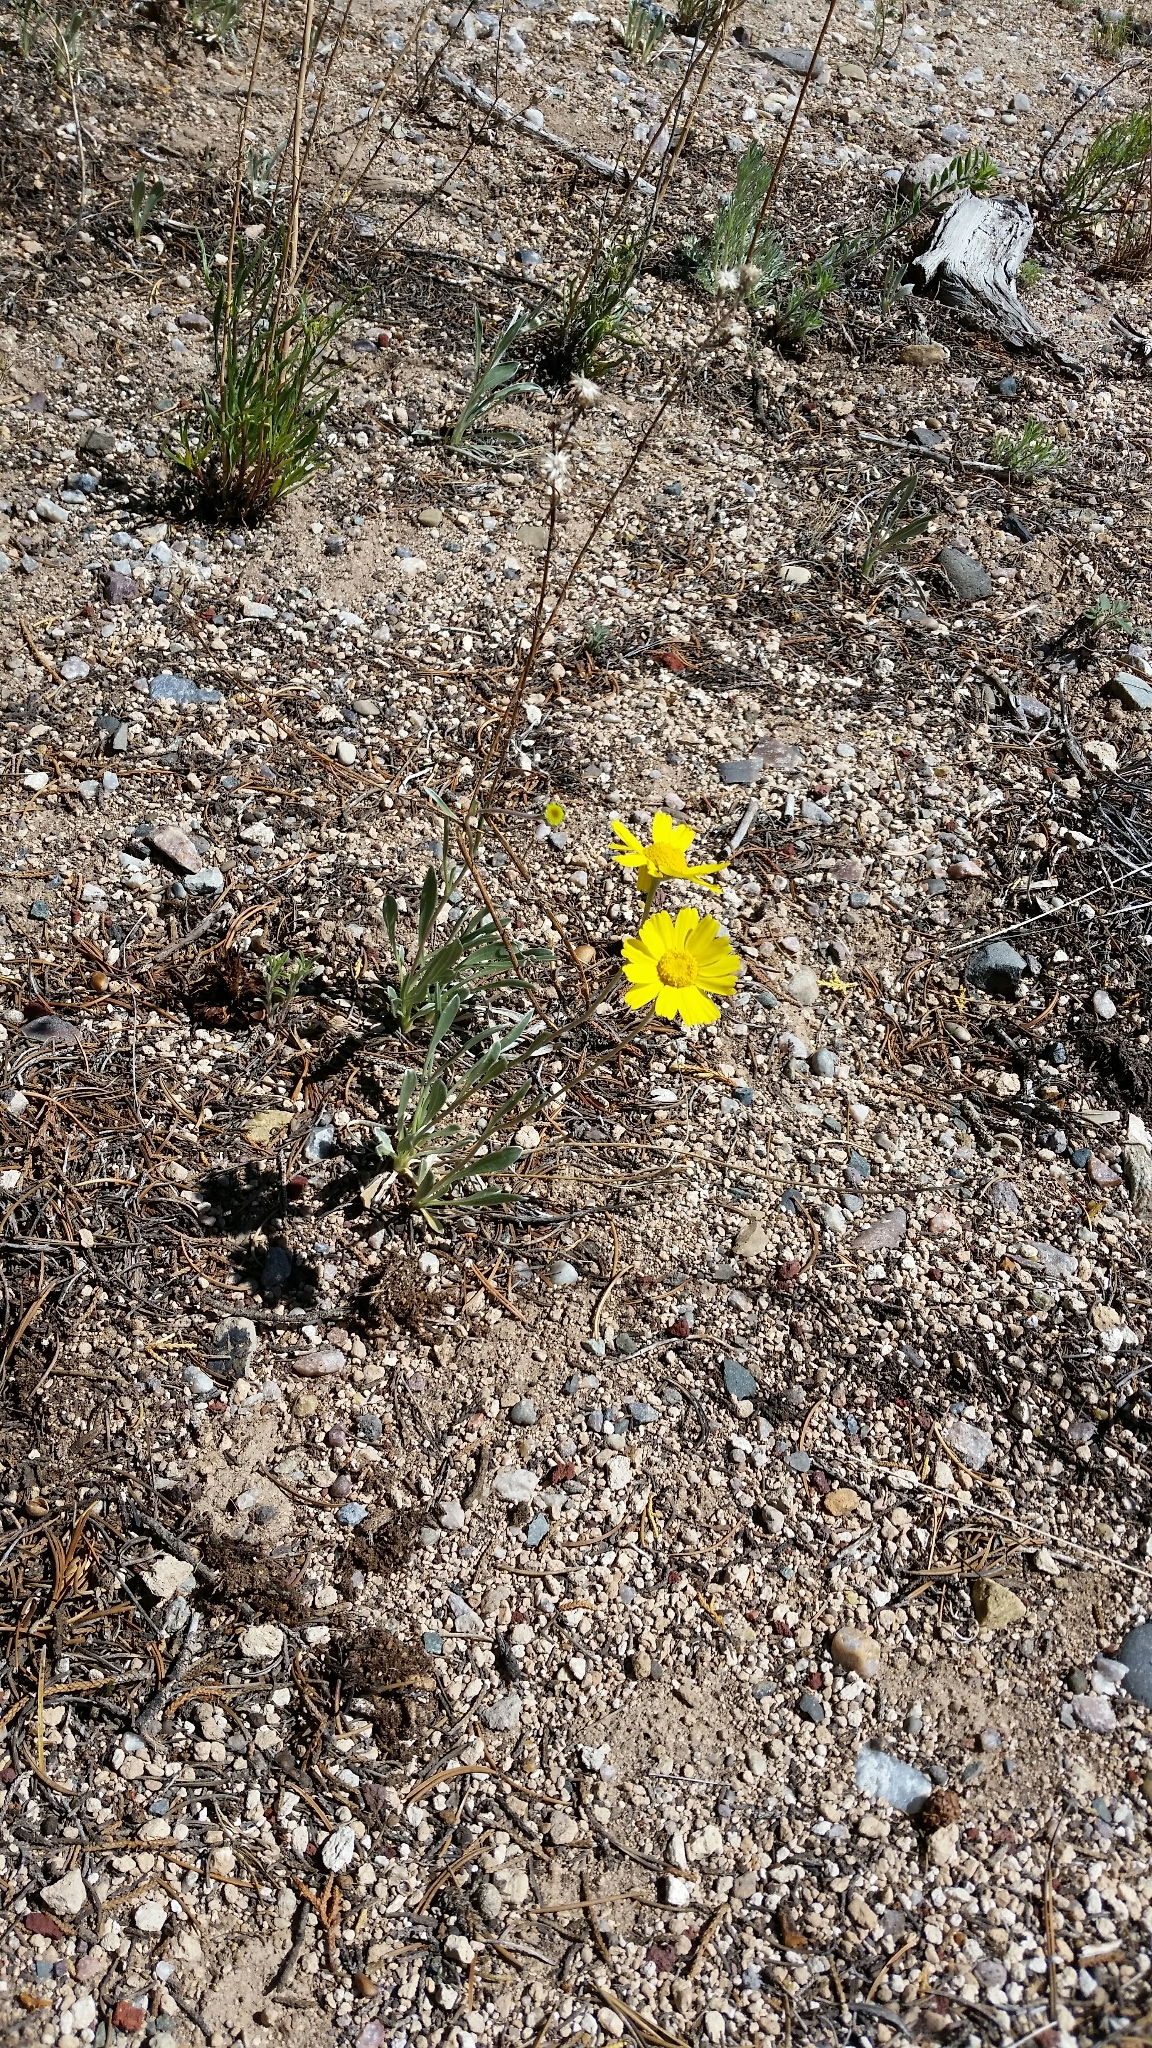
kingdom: Plantae
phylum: Tracheophyta
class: Magnoliopsida
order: Asterales
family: Asteraceae
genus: Tetraneuris
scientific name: Tetraneuris argentea
